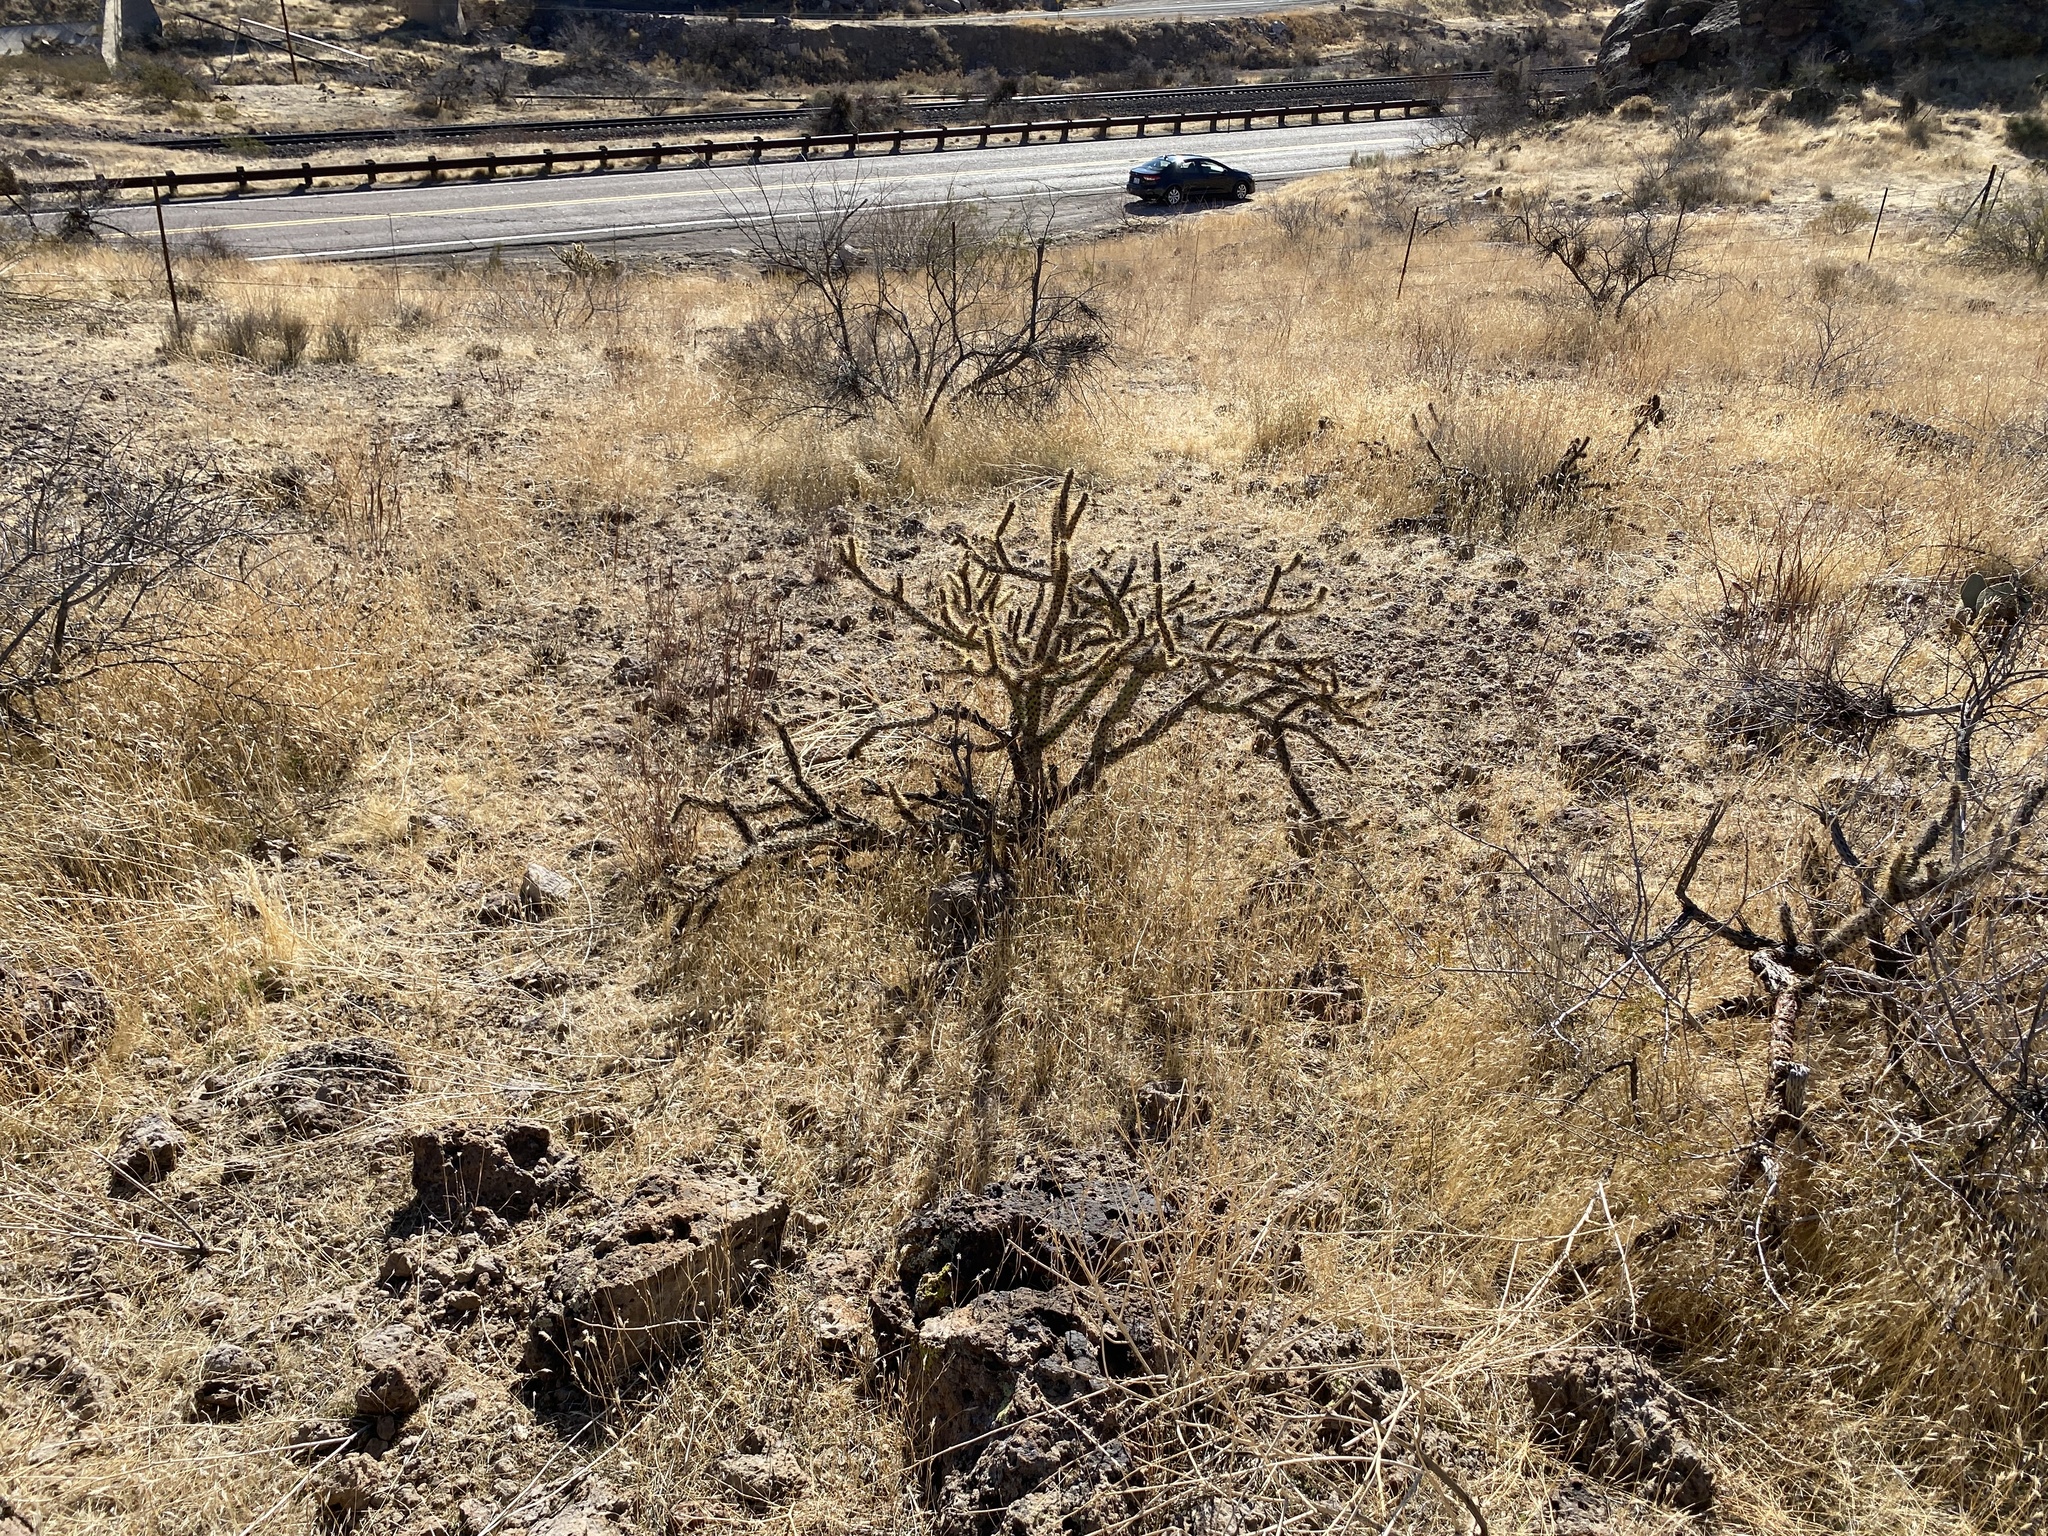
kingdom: Plantae
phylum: Tracheophyta
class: Magnoliopsida
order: Caryophyllales
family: Cactaceae
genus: Cylindropuntia
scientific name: Cylindropuntia acanthocarpa
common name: Buckhorn cholla
